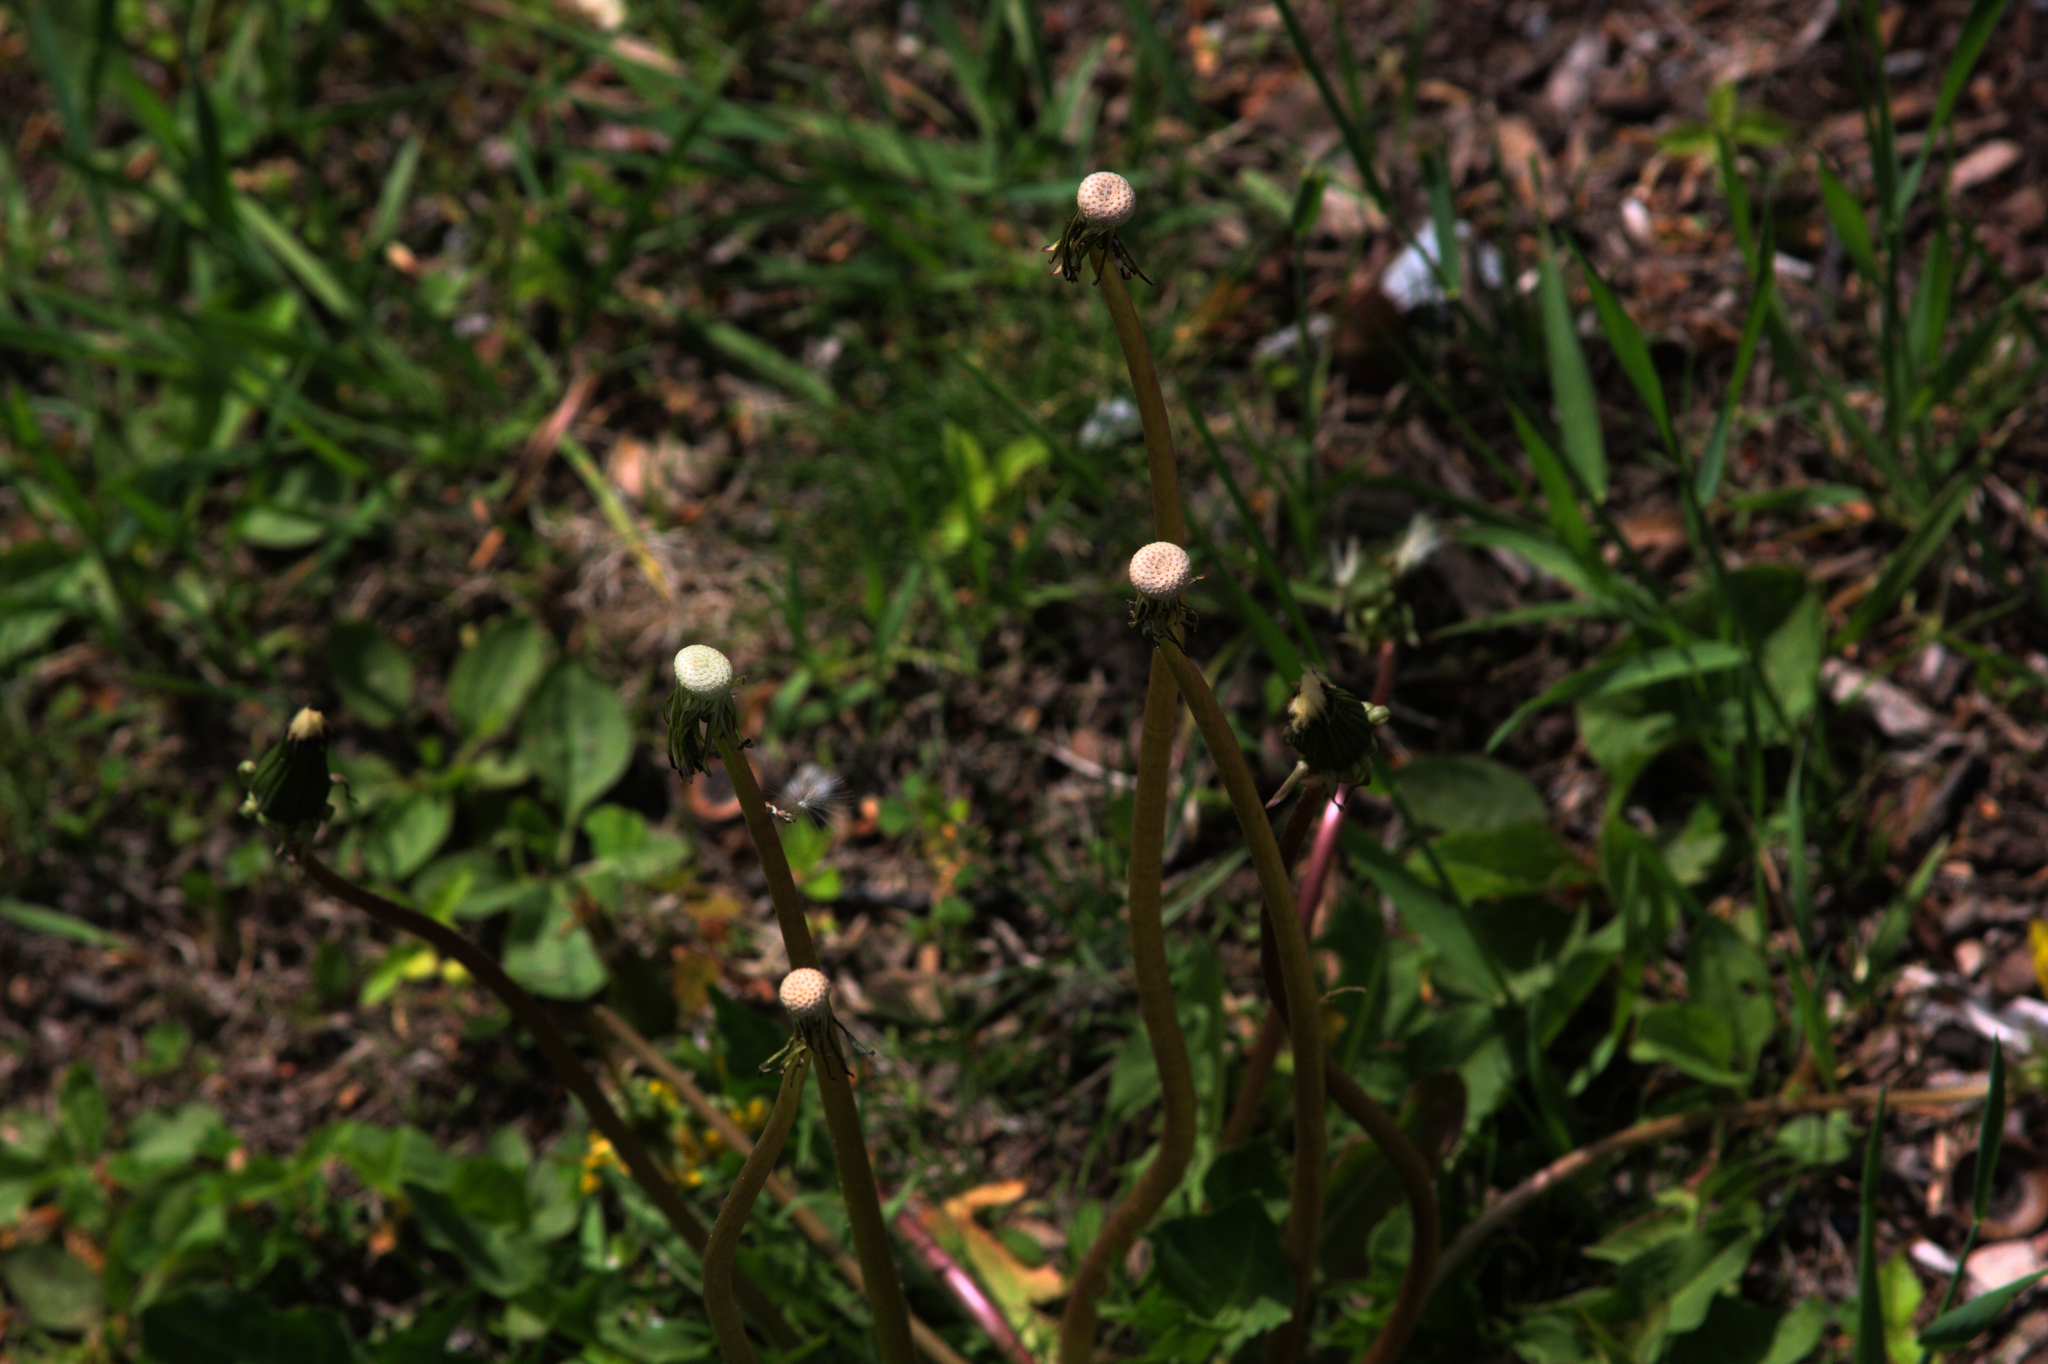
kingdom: Plantae
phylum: Tracheophyta
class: Magnoliopsida
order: Asterales
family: Asteraceae
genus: Taraxacum
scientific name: Taraxacum officinale
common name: Common dandelion
